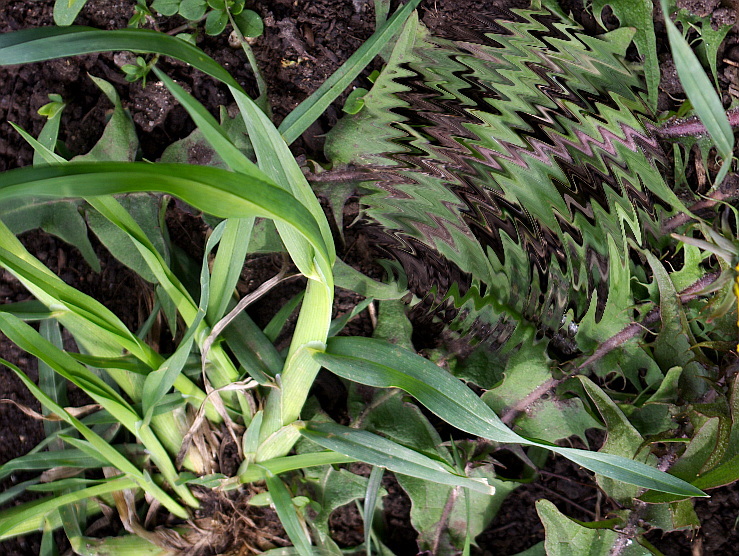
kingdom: Plantae
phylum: Tracheophyta
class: Liliopsida
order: Poales
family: Poaceae
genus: Dactylis
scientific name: Dactylis glomerata
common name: Orchardgrass
